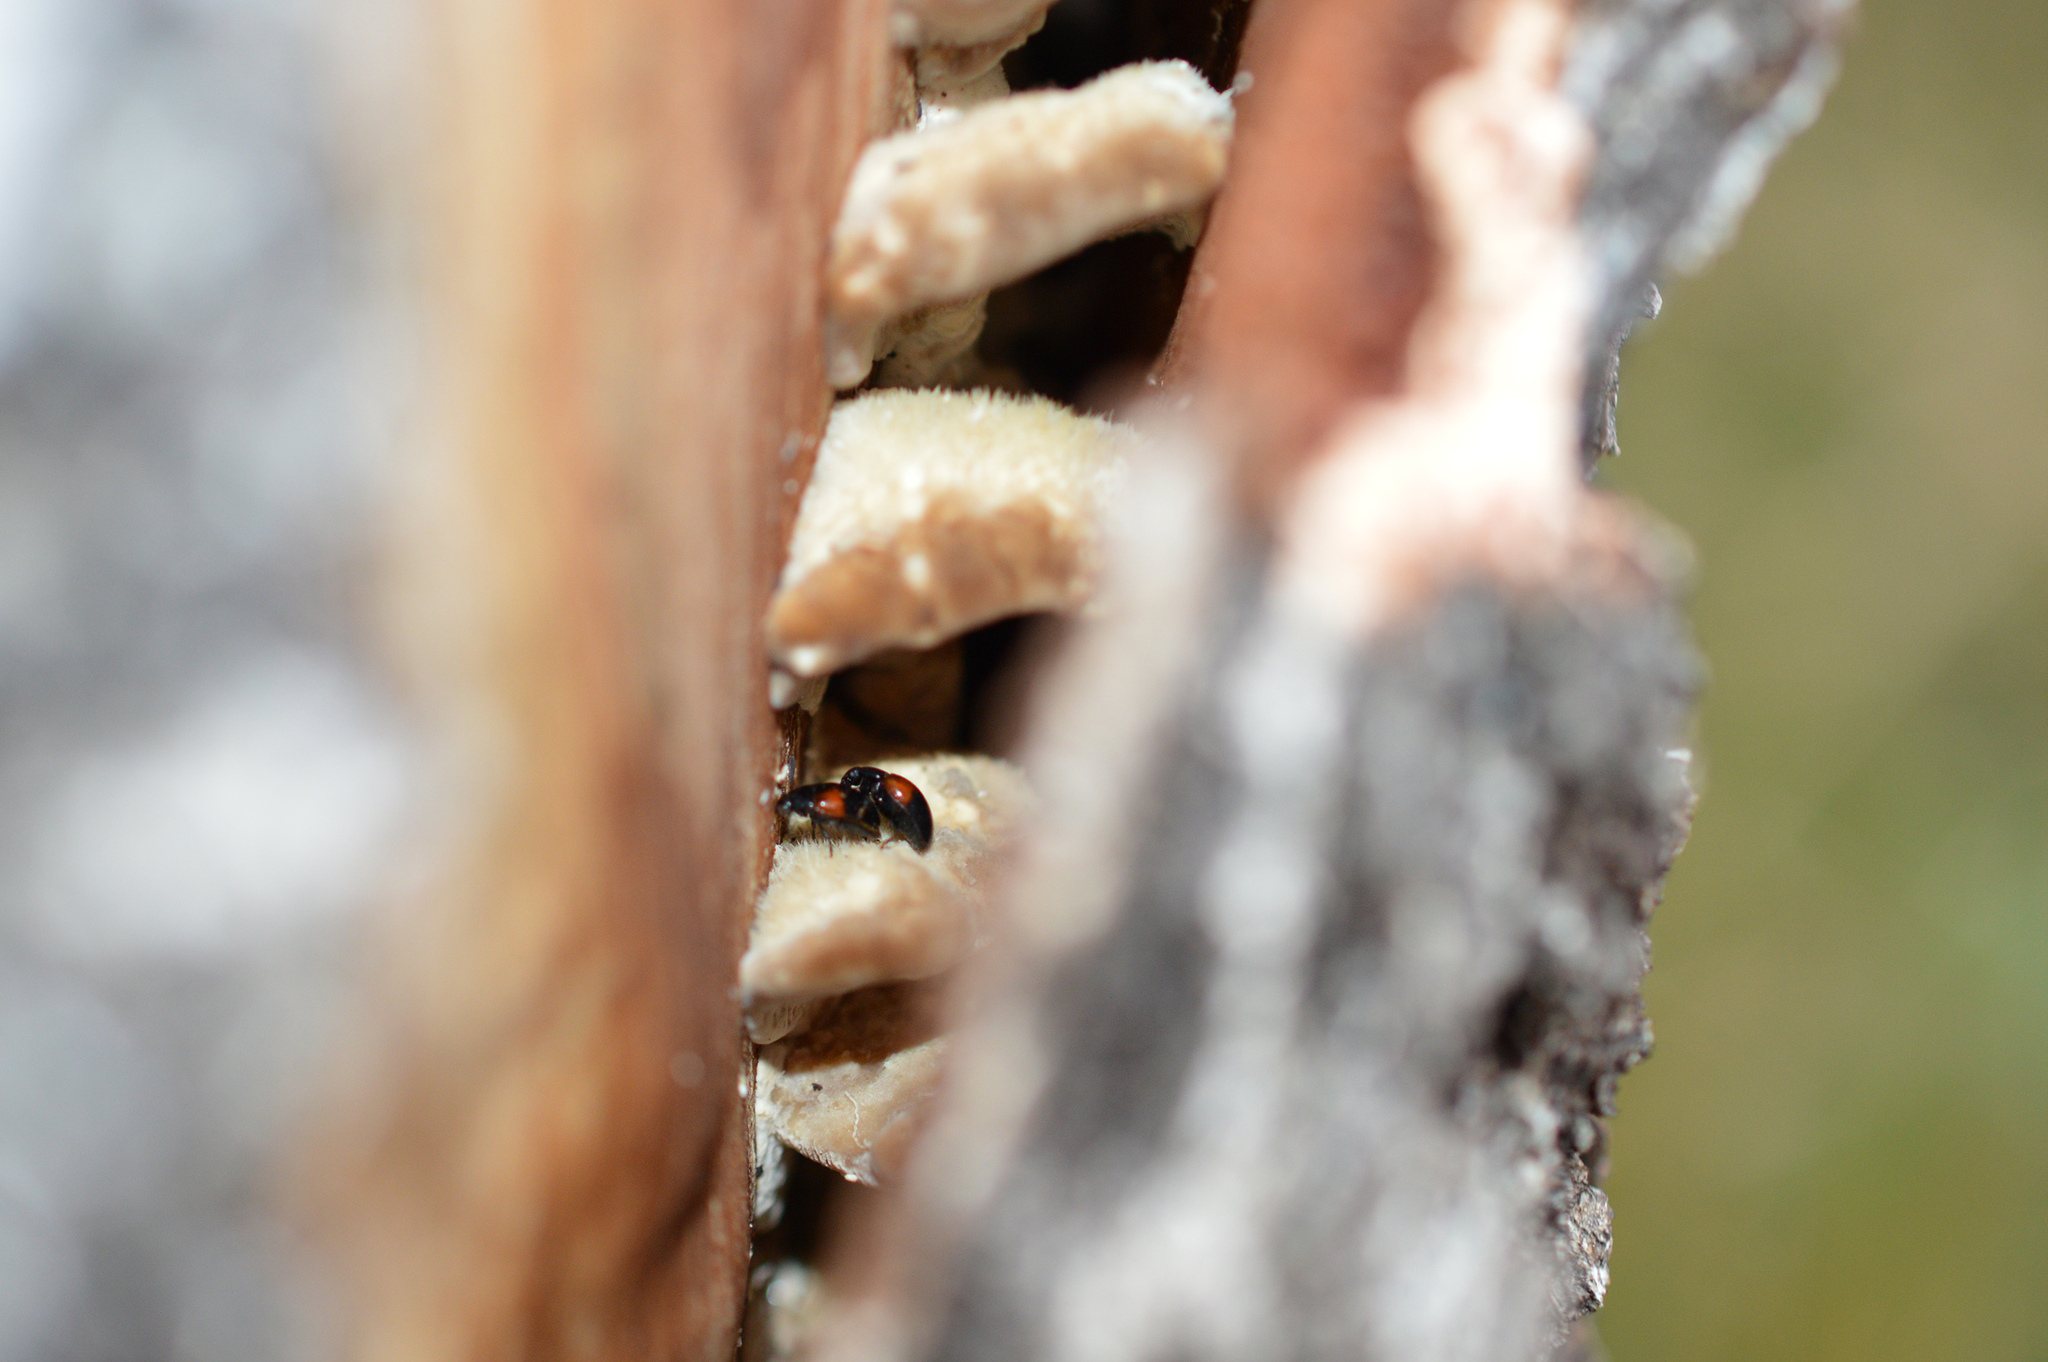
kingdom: Animalia
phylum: Arthropoda
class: Insecta
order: Coleoptera
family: Erotylidae
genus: Tritoma
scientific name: Tritoma bipustulata
